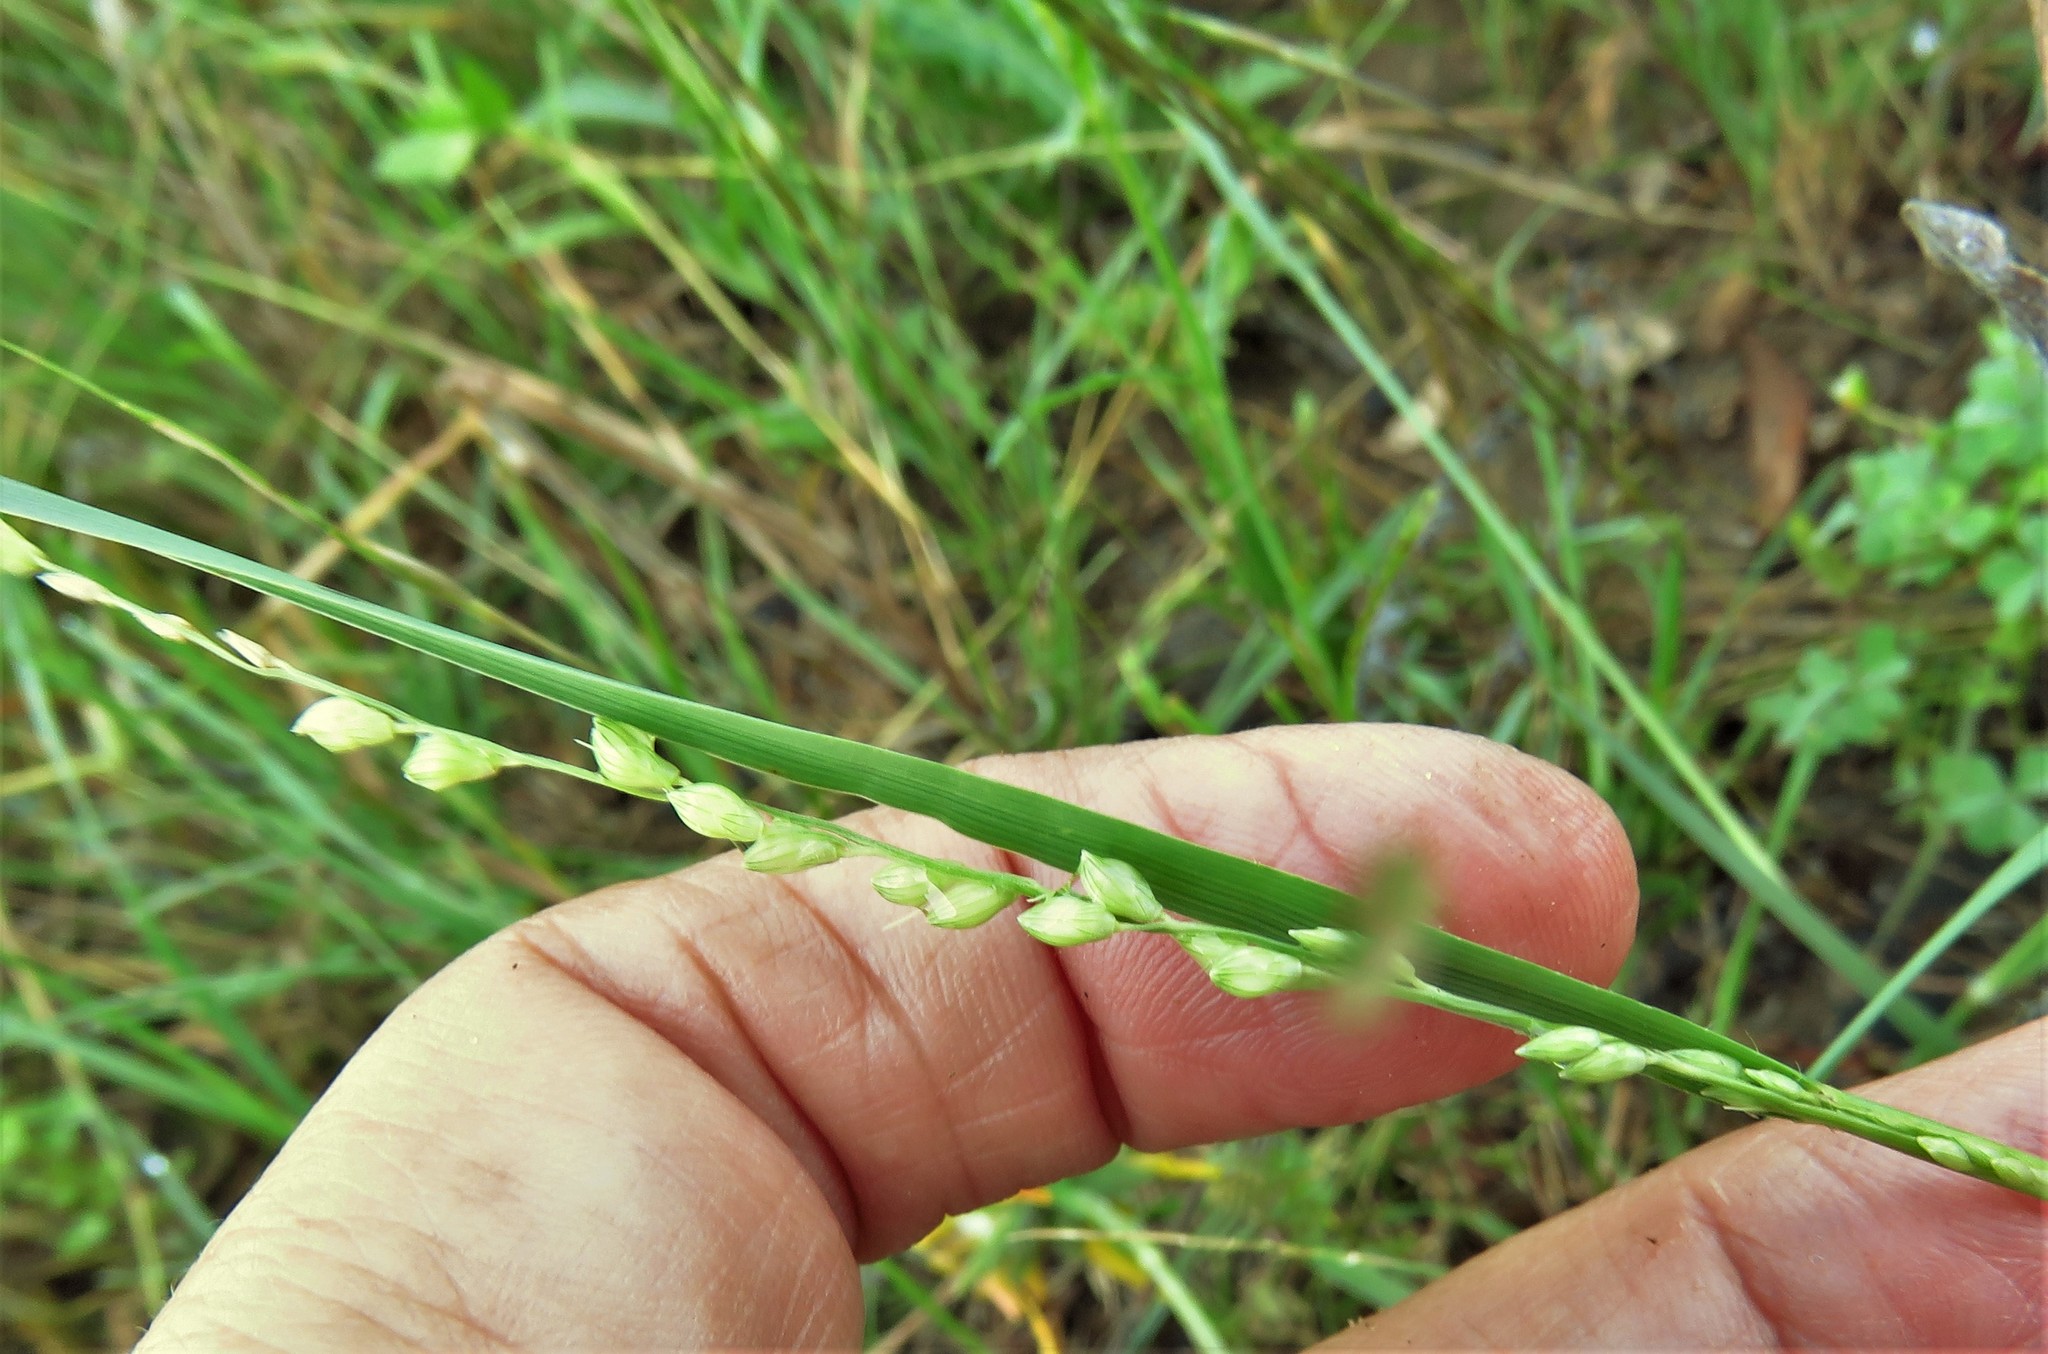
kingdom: Plantae
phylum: Tracheophyta
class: Liliopsida
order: Poales
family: Poaceae
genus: Setaria
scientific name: Setaria reverchonii
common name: Reverchon's bristle grass
